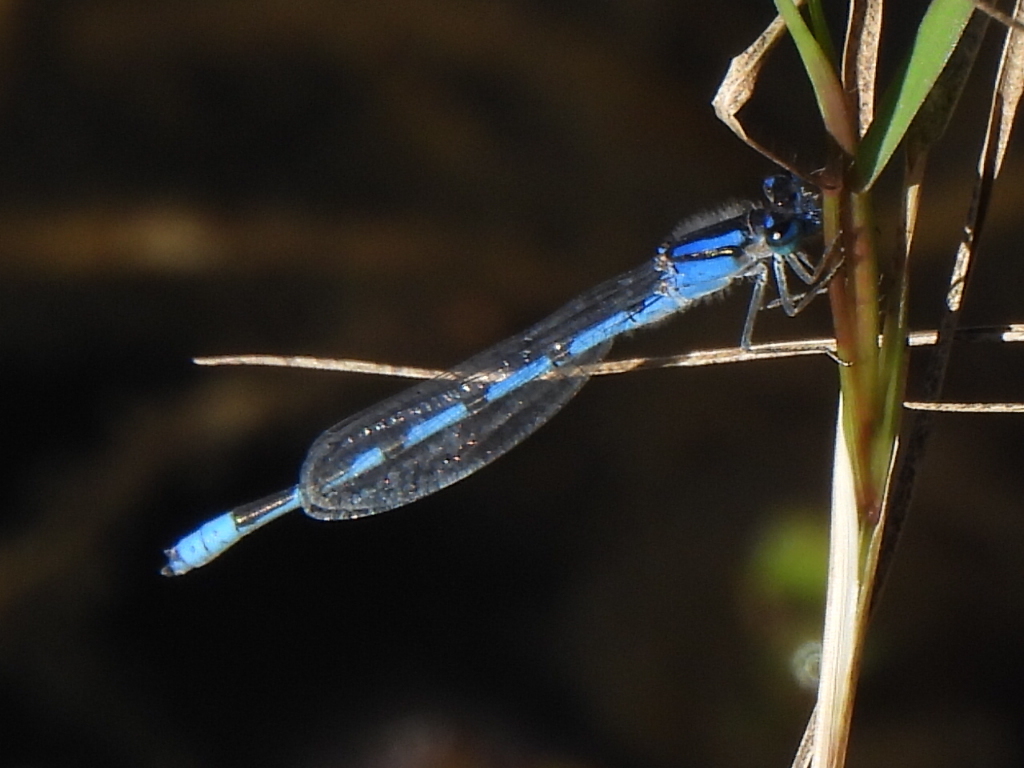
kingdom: Animalia
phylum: Arthropoda
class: Insecta
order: Odonata
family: Coenagrionidae
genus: Enallagma
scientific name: Enallagma civile
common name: Damselfly
